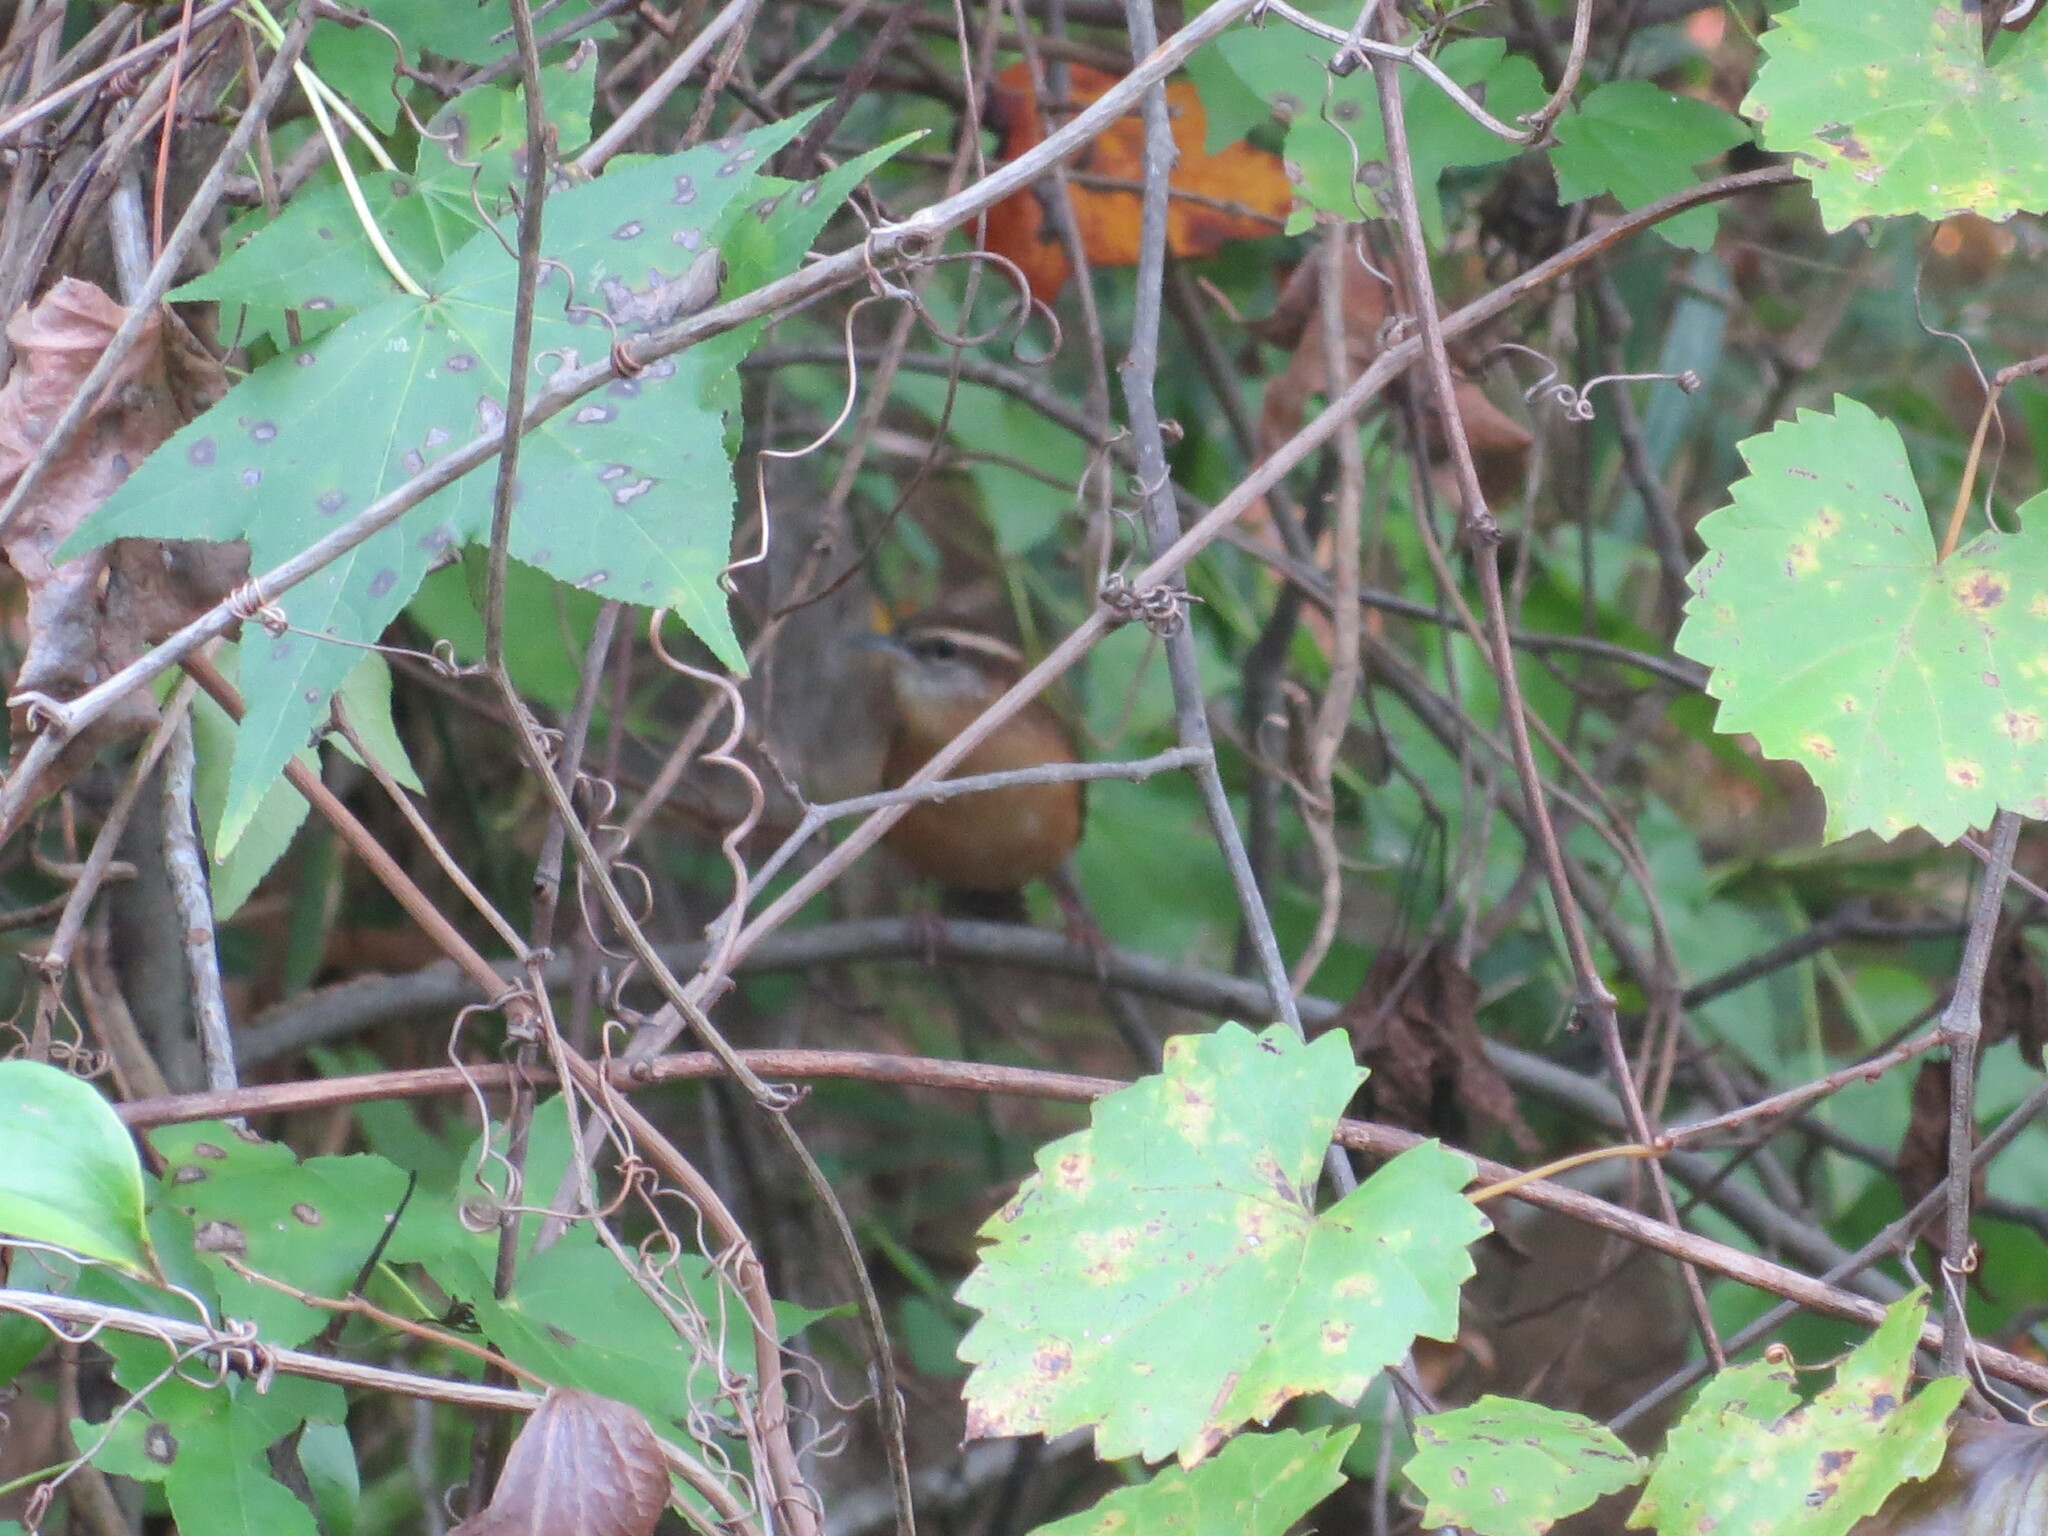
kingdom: Animalia
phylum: Chordata
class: Aves
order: Passeriformes
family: Troglodytidae
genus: Thryothorus
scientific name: Thryothorus ludovicianus
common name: Carolina wren
